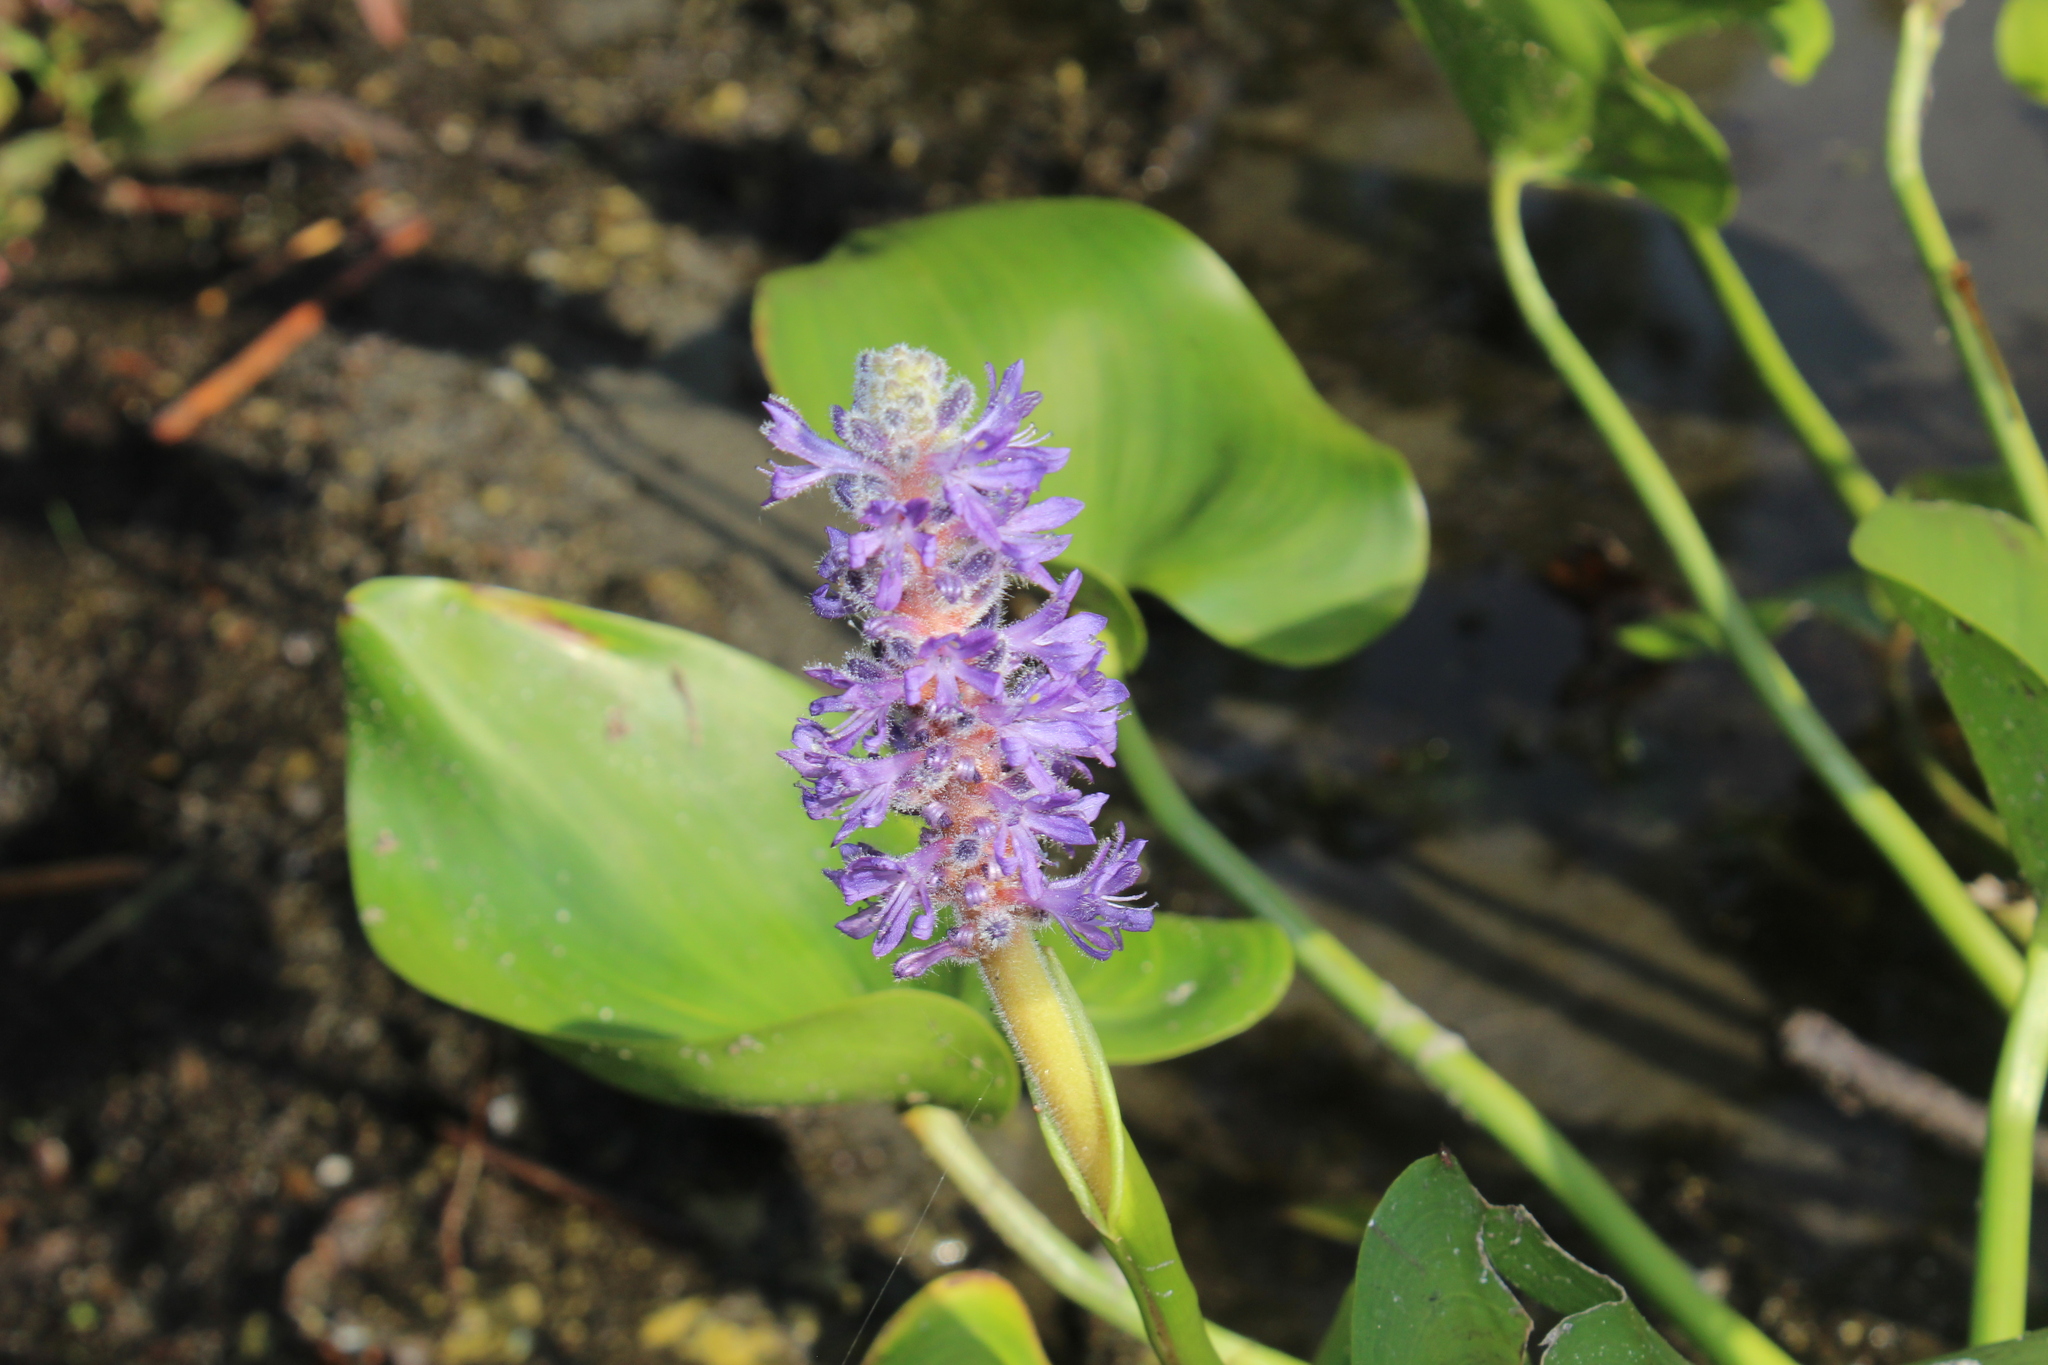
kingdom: Plantae
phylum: Tracheophyta
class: Liliopsida
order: Commelinales
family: Pontederiaceae
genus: Pontederia
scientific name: Pontederia cordata
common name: Pickerelweed
